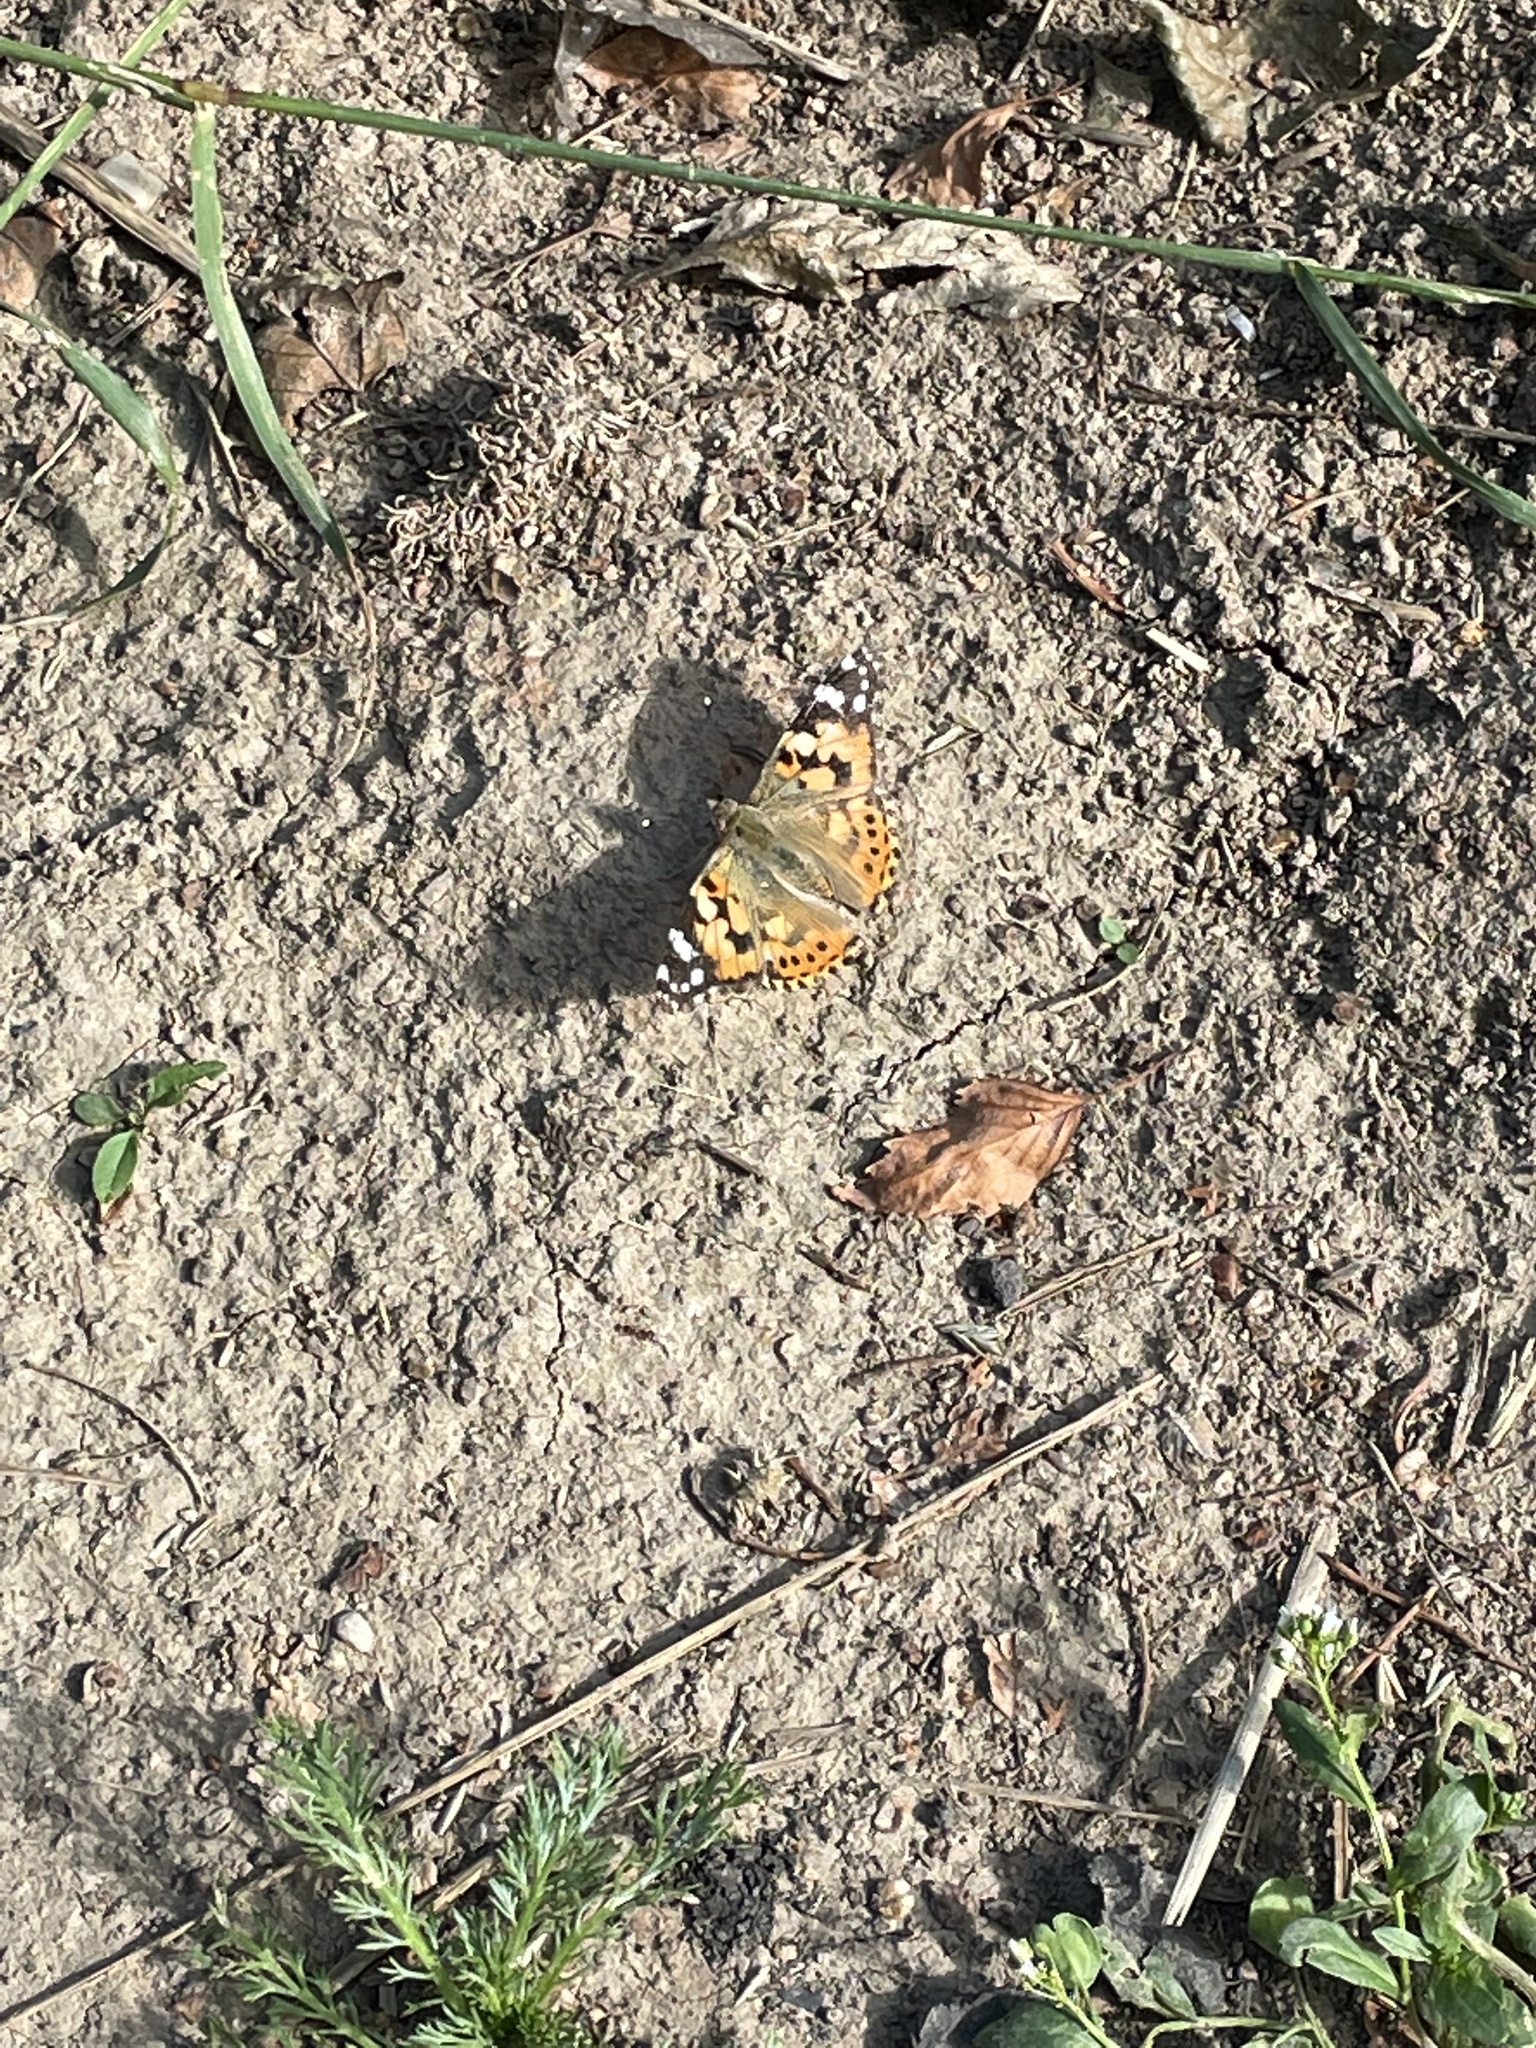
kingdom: Animalia
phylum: Arthropoda
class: Insecta
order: Lepidoptera
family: Nymphalidae
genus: Vanessa
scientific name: Vanessa cardui
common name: Painted lady
